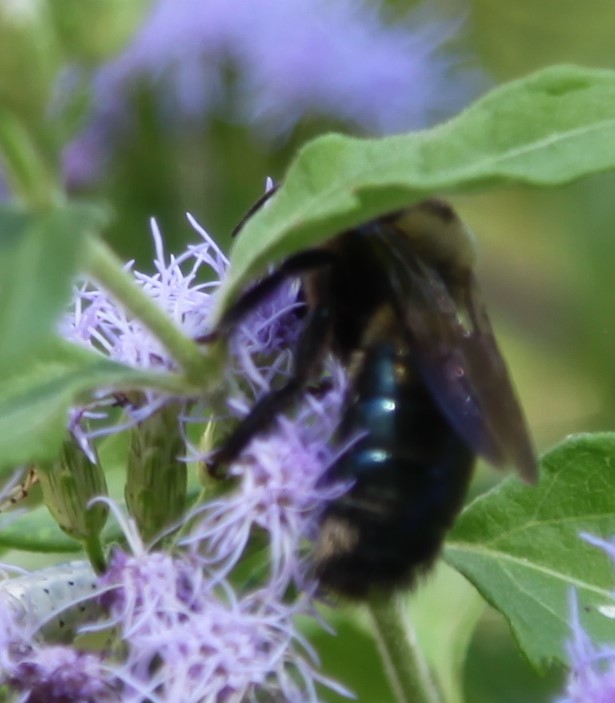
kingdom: Animalia
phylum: Arthropoda
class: Insecta
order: Hymenoptera
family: Apidae
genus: Xylocopa
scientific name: Xylocopa virginica
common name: Carpenter bee
